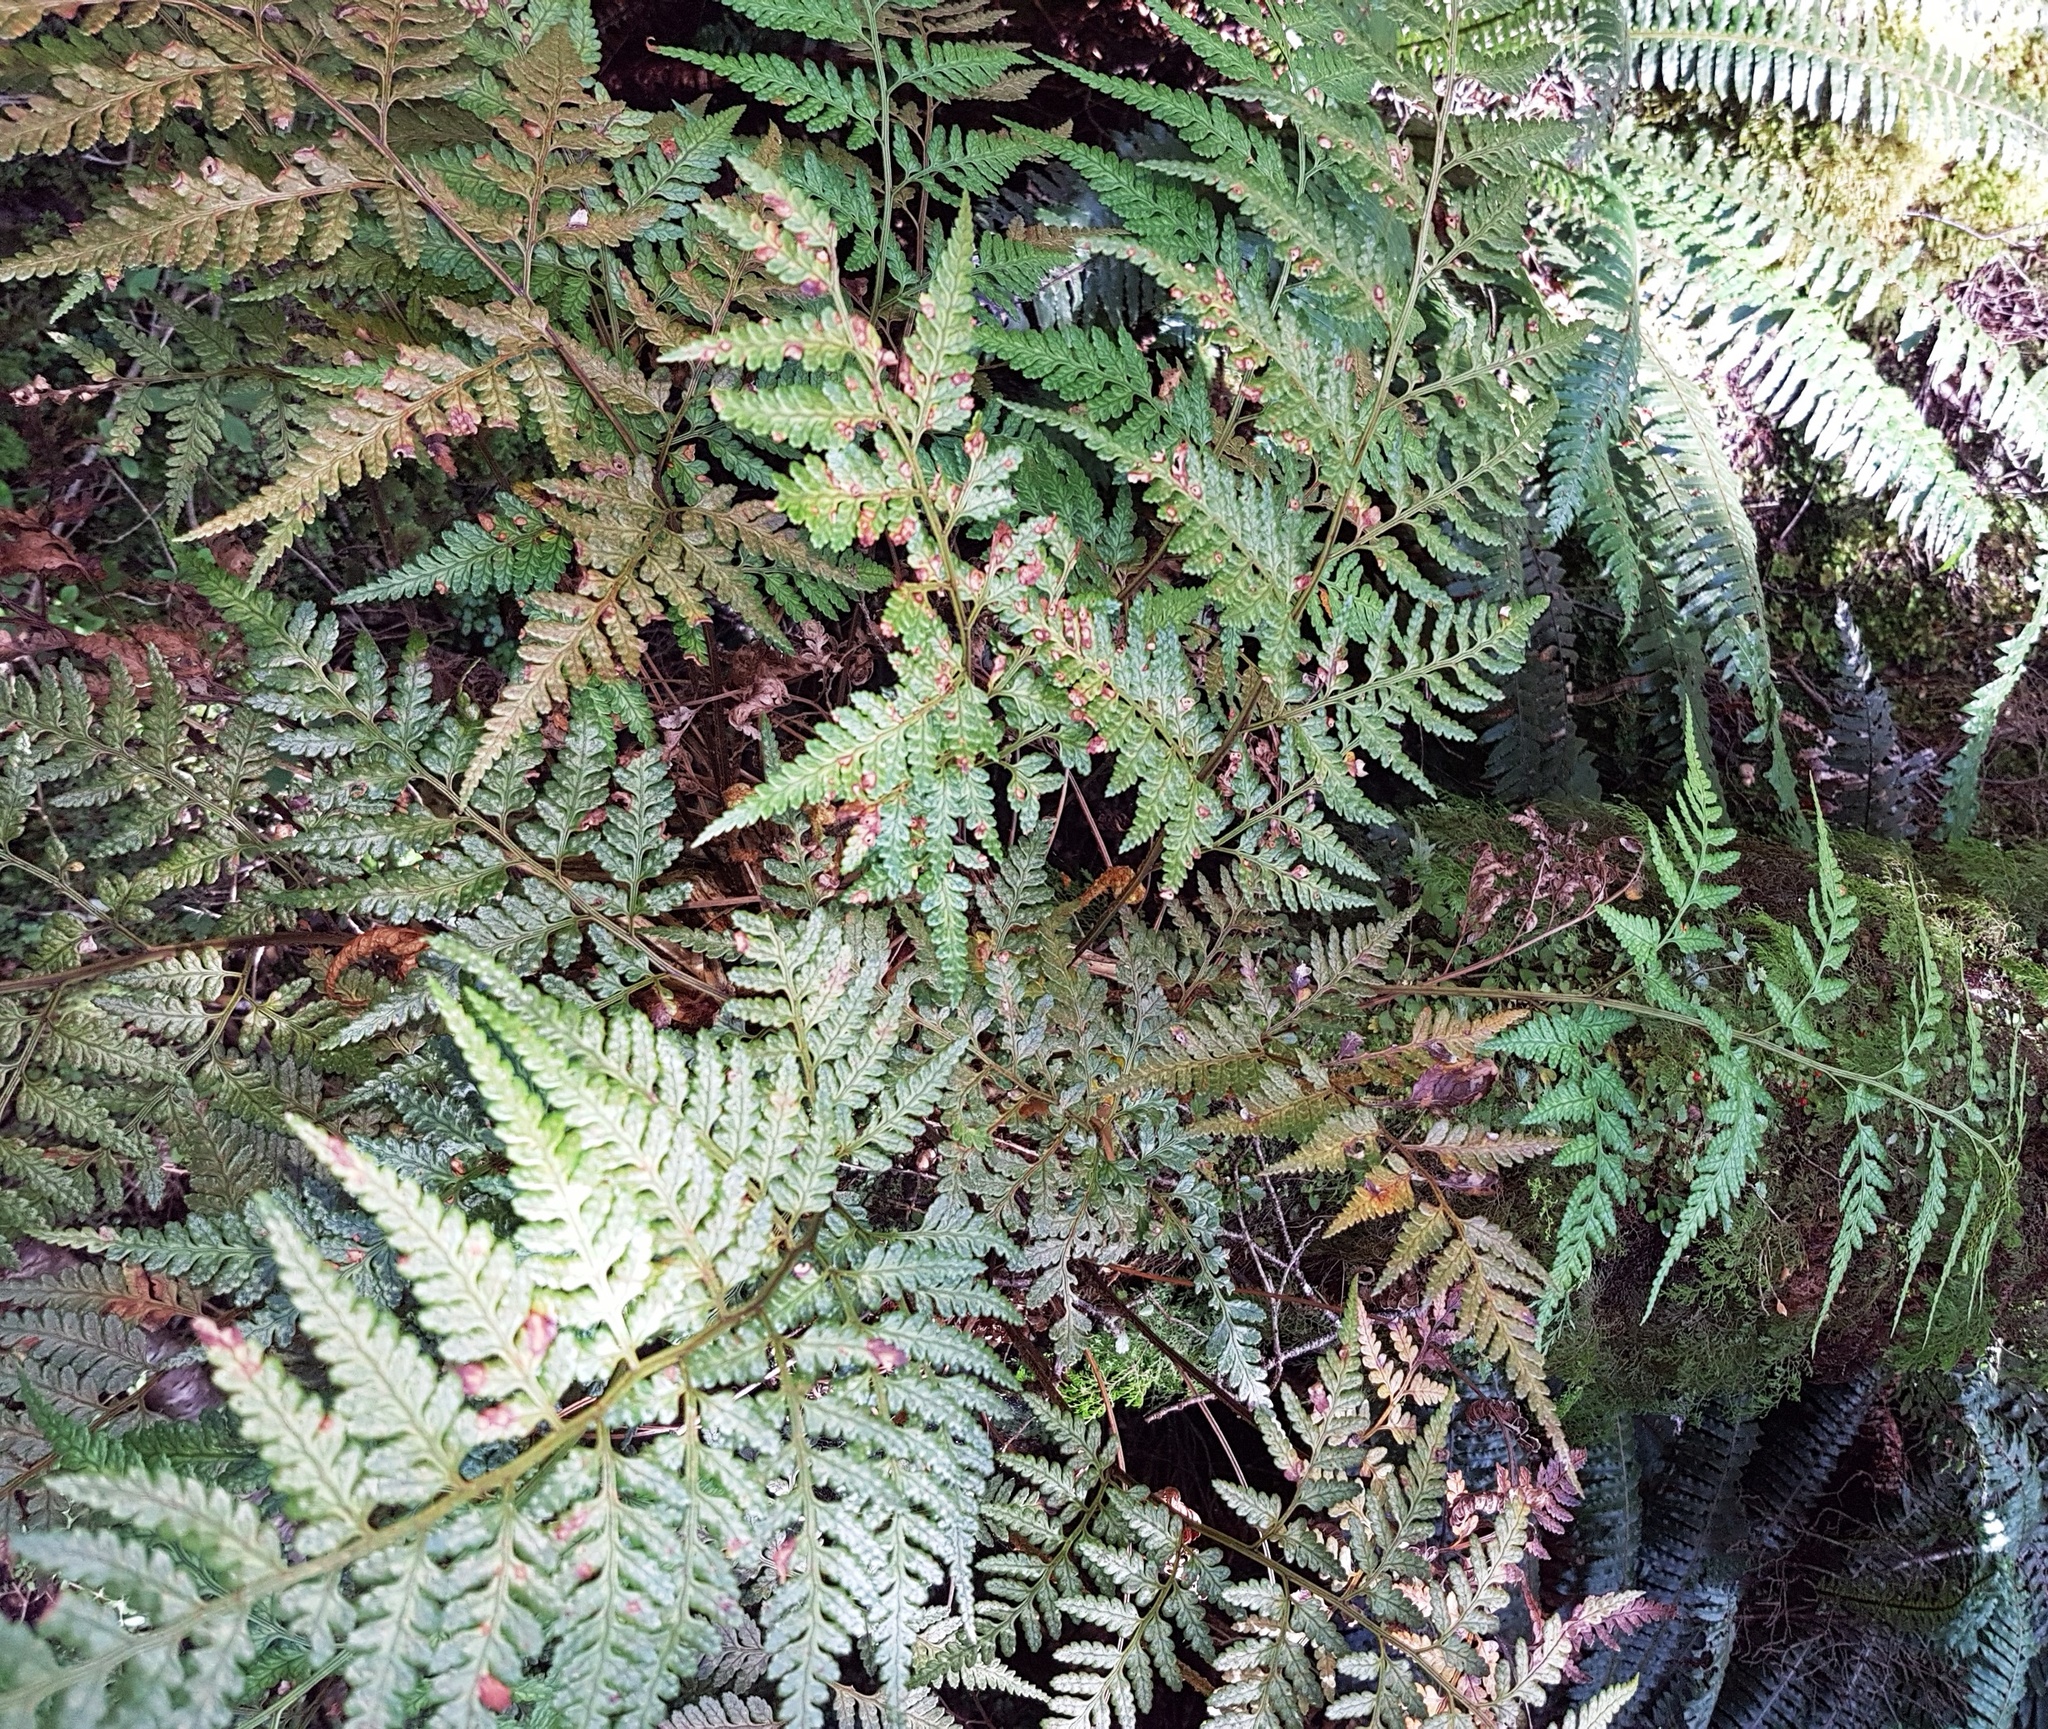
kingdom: Plantae
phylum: Tracheophyta
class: Polypodiopsida
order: Polypodiales
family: Dryopteridaceae
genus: Rumohra
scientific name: Rumohra adiantiformis
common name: Leather fern
